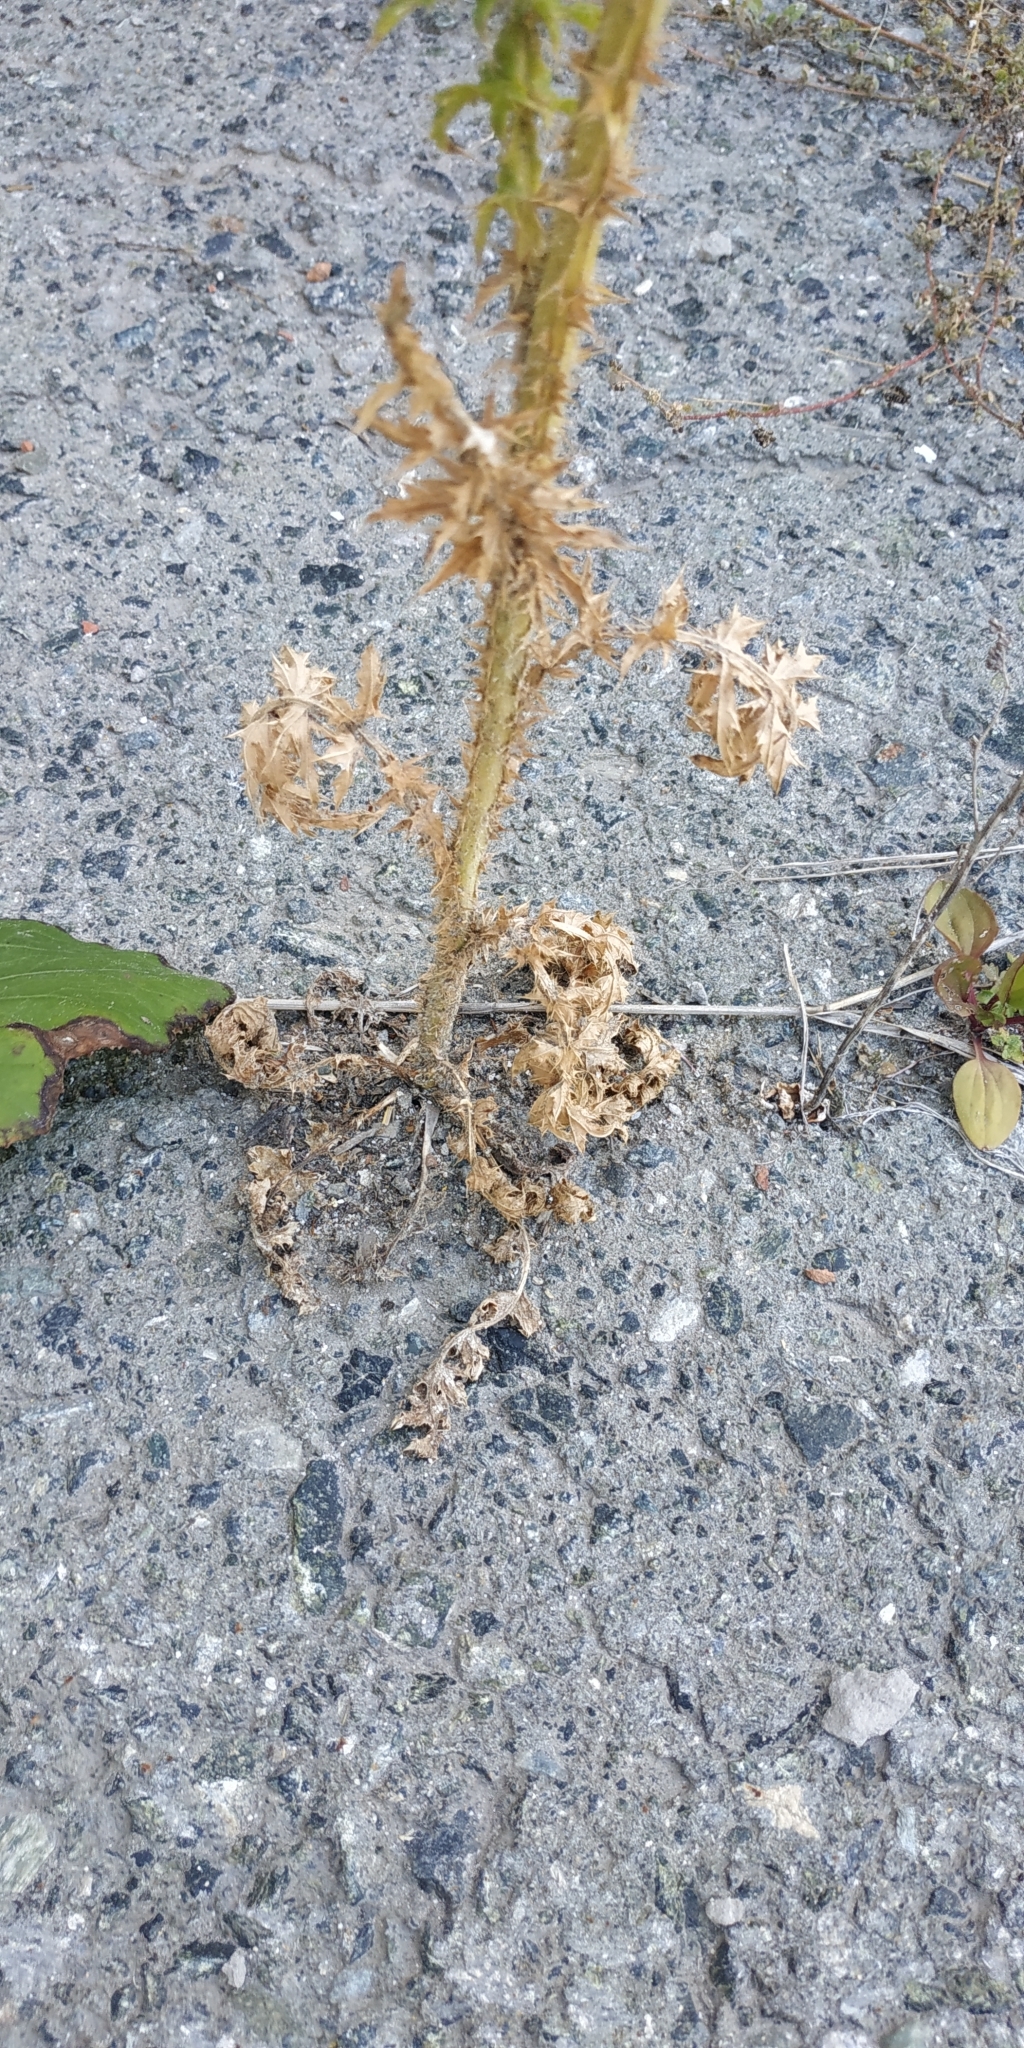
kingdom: Plantae
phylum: Tracheophyta
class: Magnoliopsida
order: Asterales
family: Asteraceae
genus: Carduus
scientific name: Carduus acanthoides
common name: Plumeless thistle
